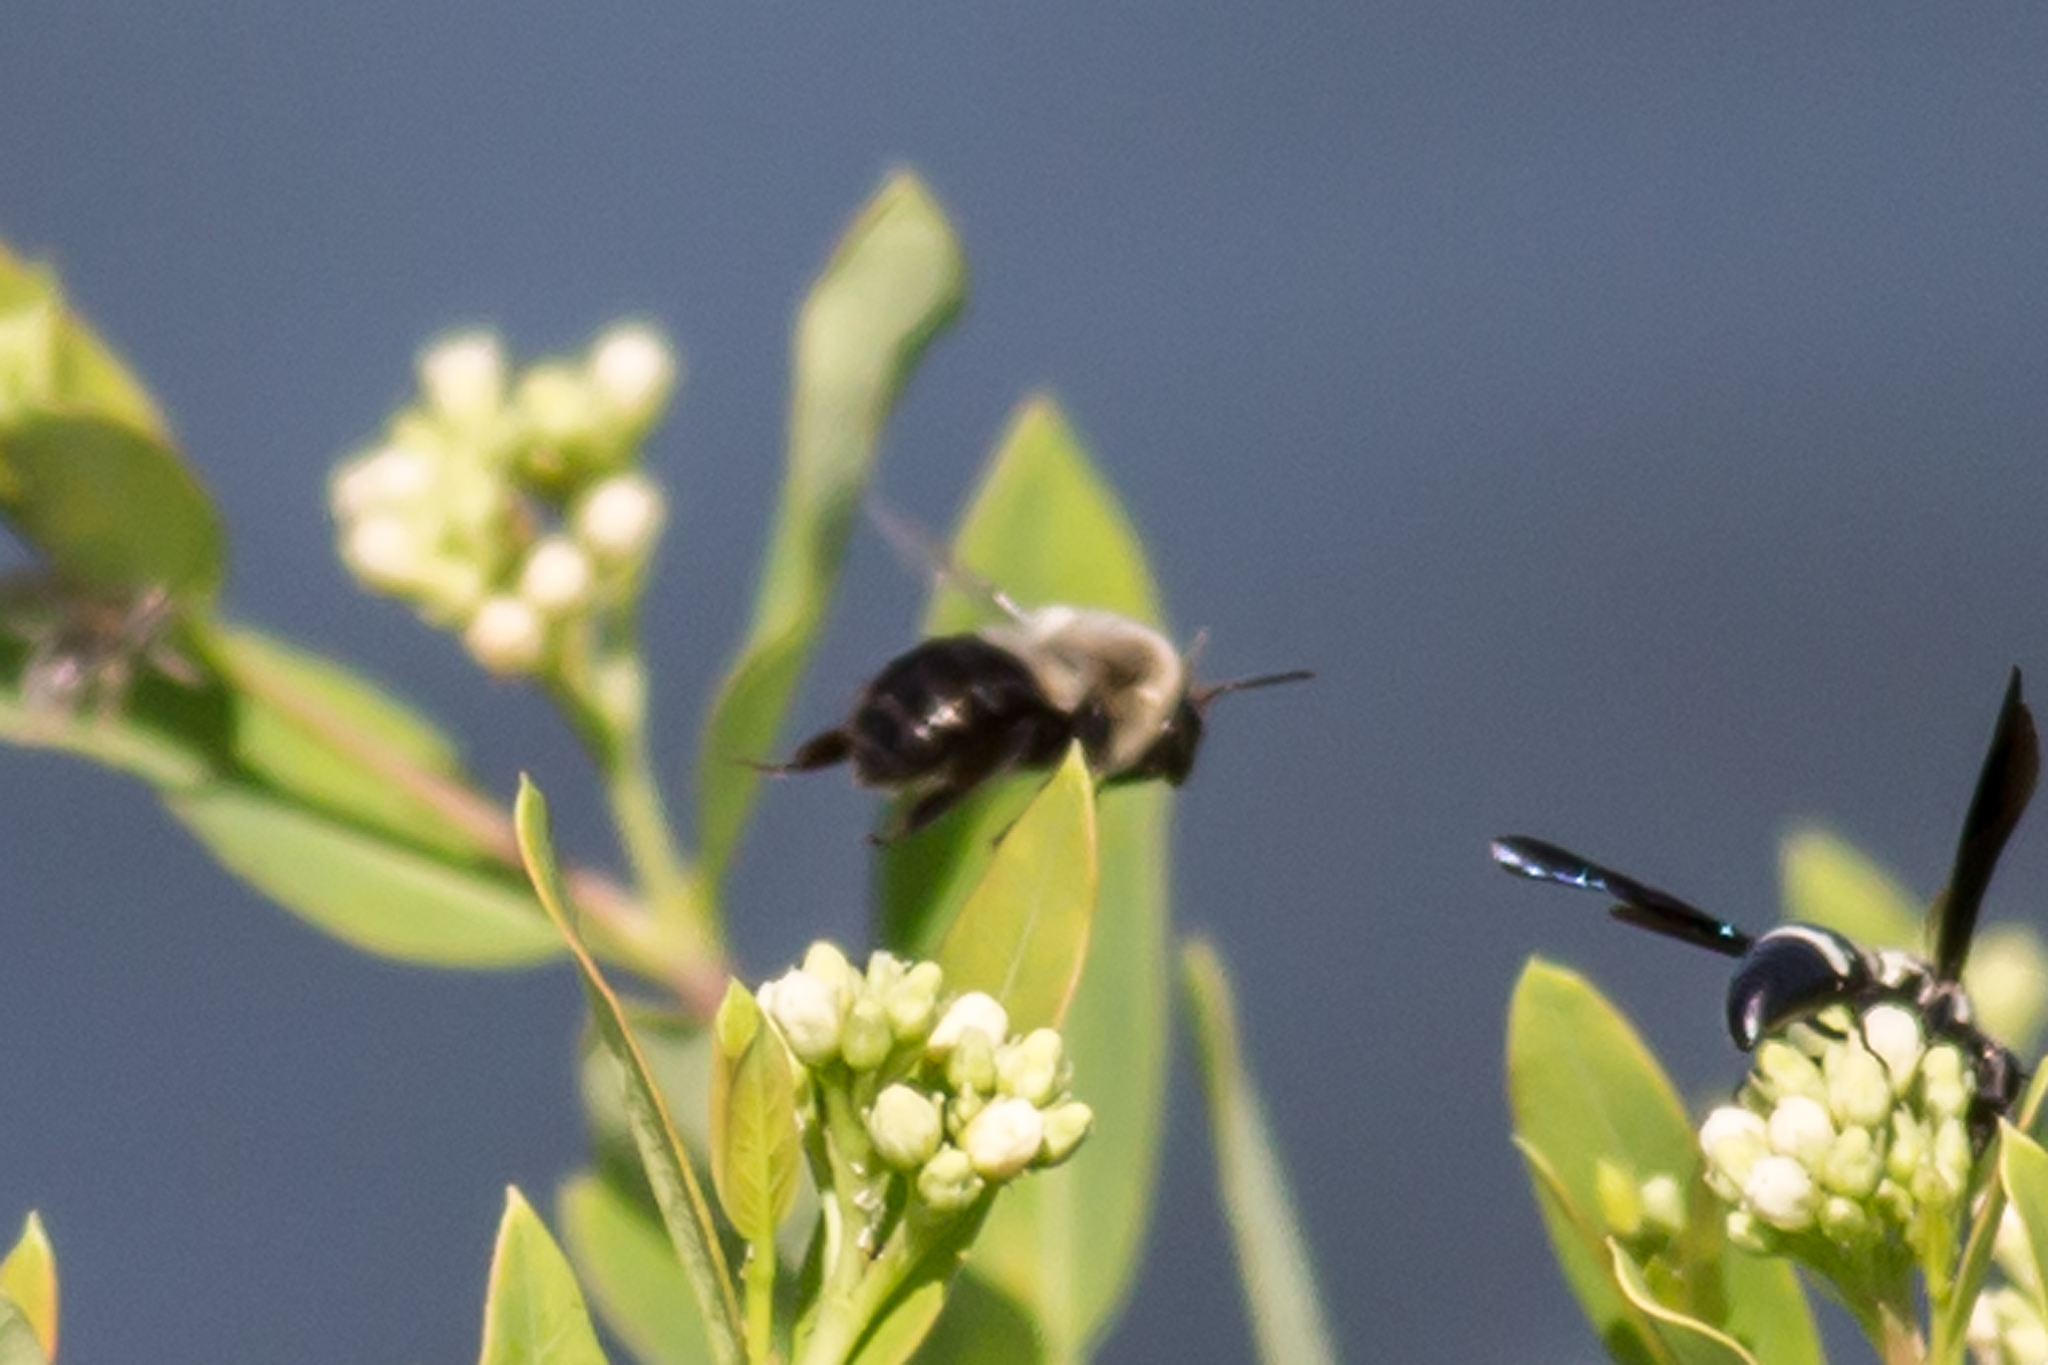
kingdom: Animalia
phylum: Arthropoda
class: Insecta
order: Hymenoptera
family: Apidae
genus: Bombus
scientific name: Bombus impatiens
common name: Common eastern bumble bee
